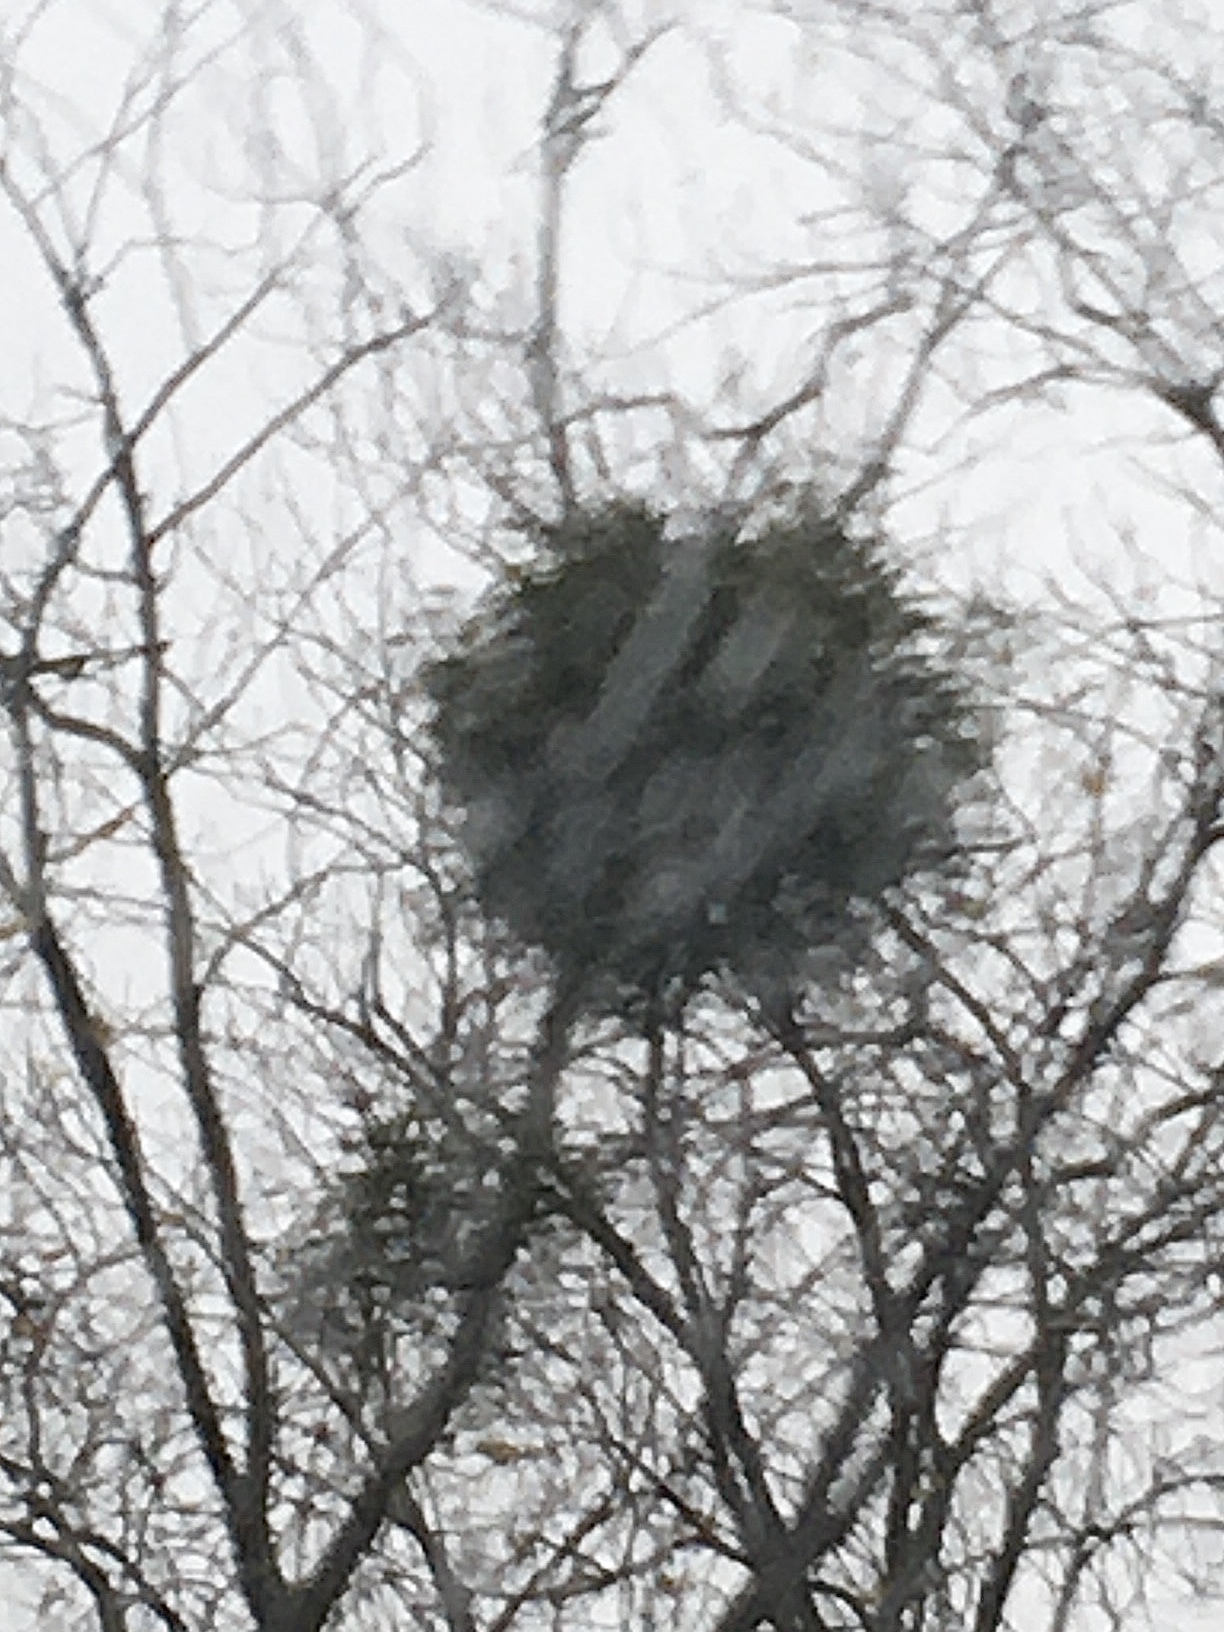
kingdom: Plantae
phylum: Tracheophyta
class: Magnoliopsida
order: Santalales
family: Viscaceae
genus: Viscum
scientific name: Viscum album
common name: Mistletoe
